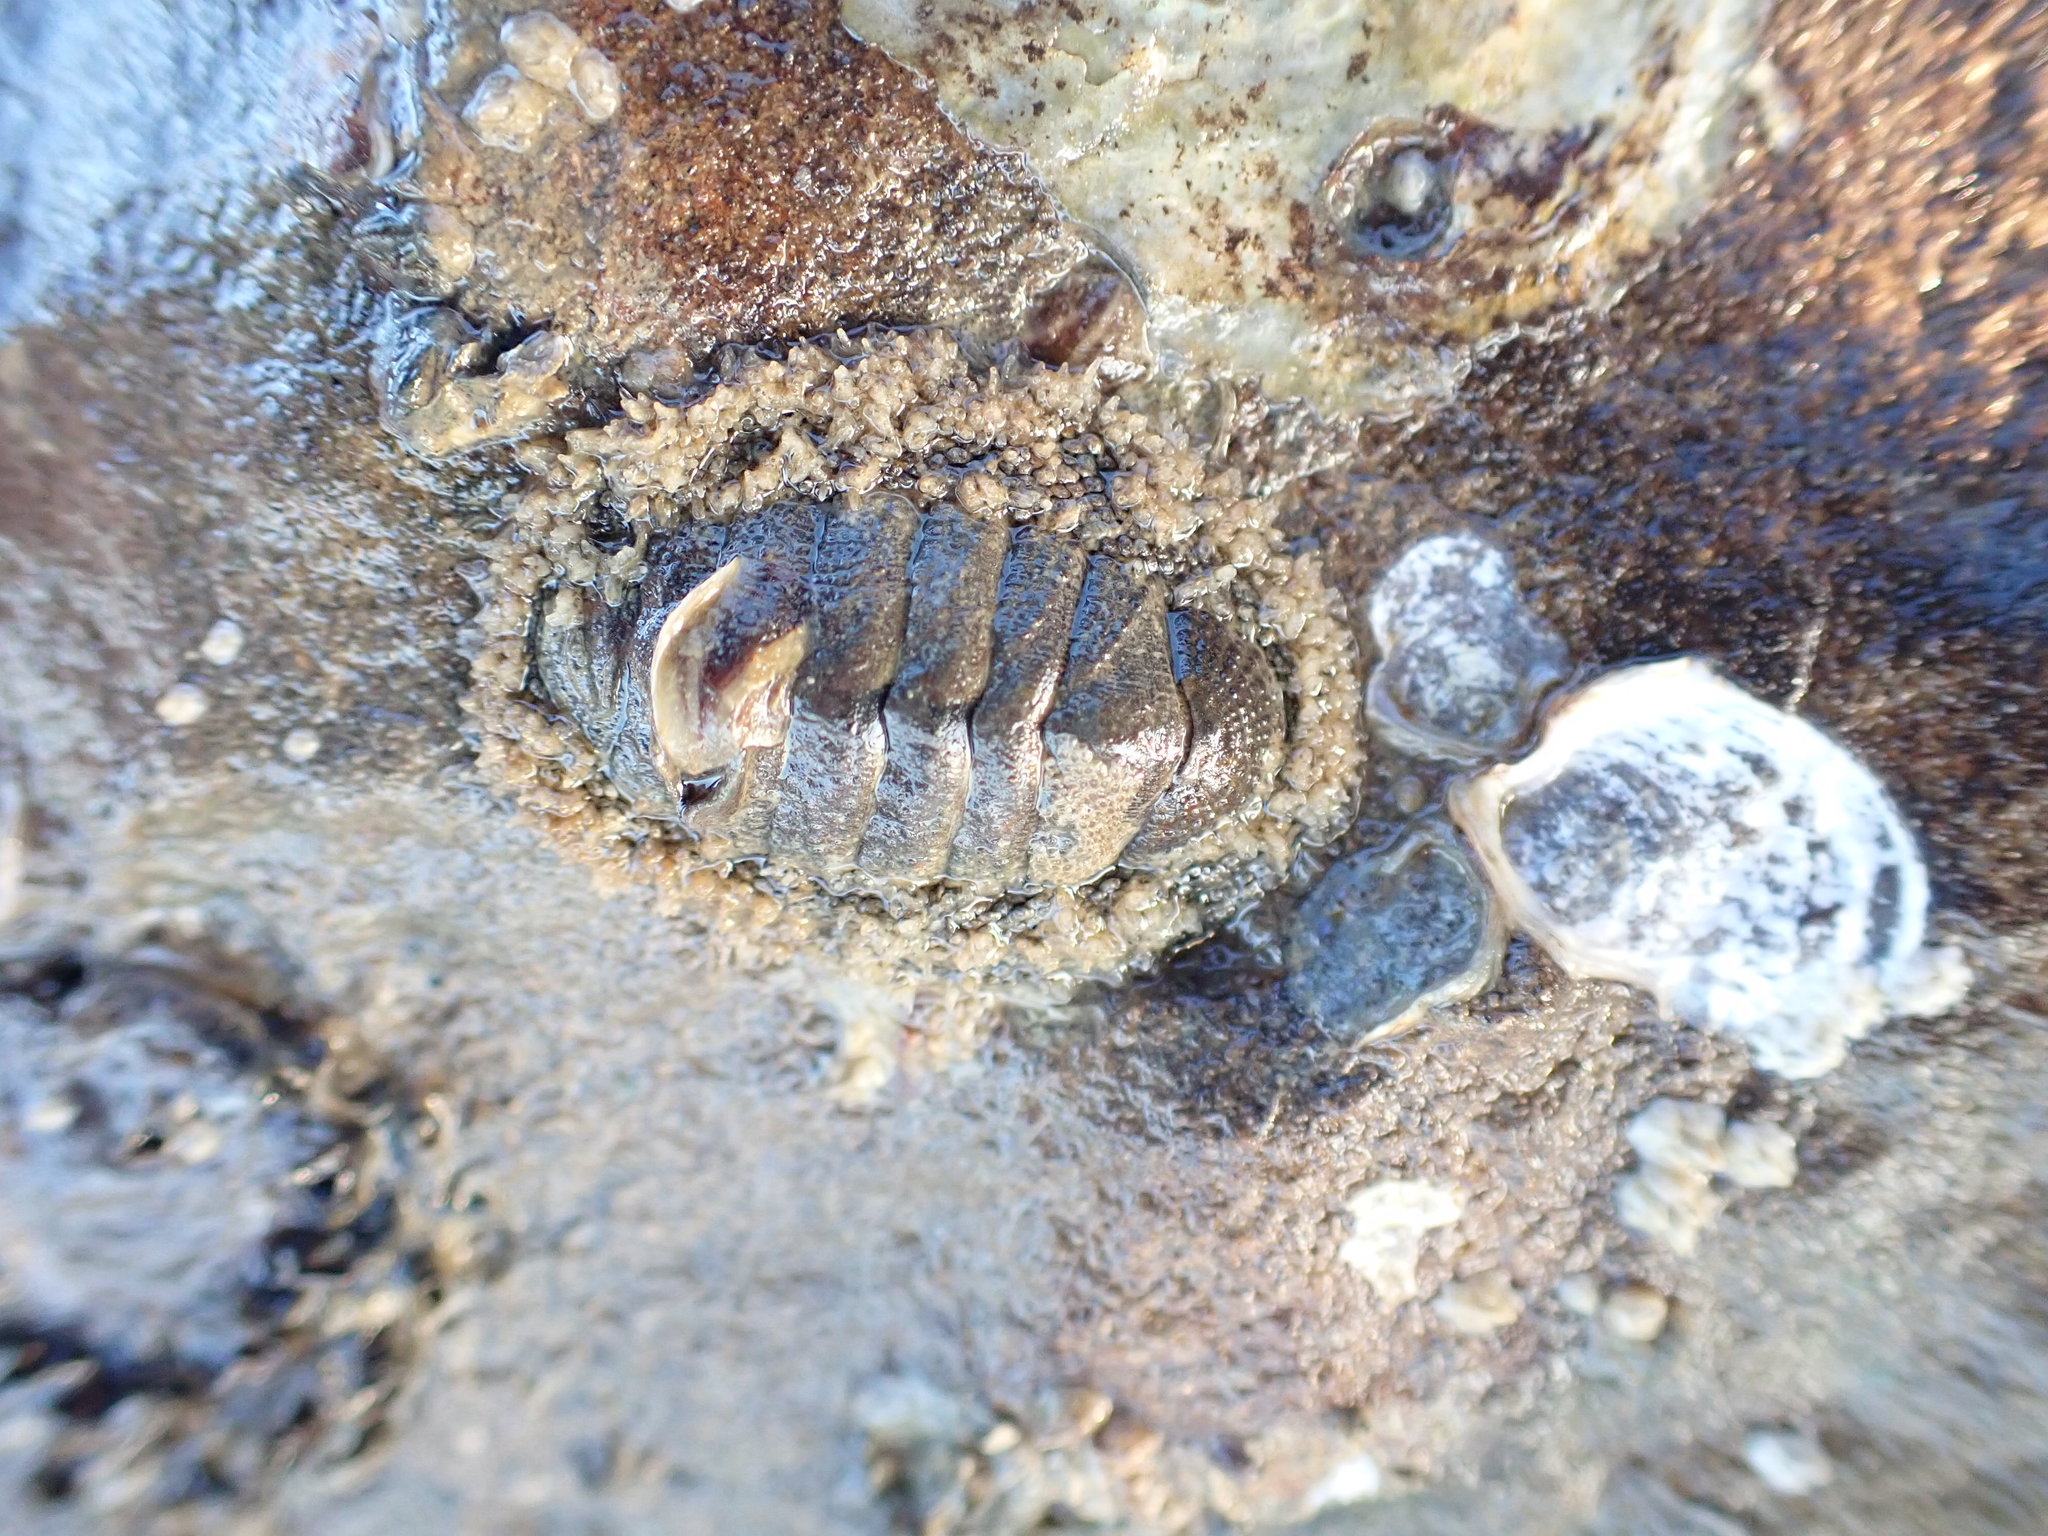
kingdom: Animalia
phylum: Mollusca
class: Polyplacophora
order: Chitonida
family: Chitonidae
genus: Sypharochiton
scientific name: Sypharochiton pelliserpentis
